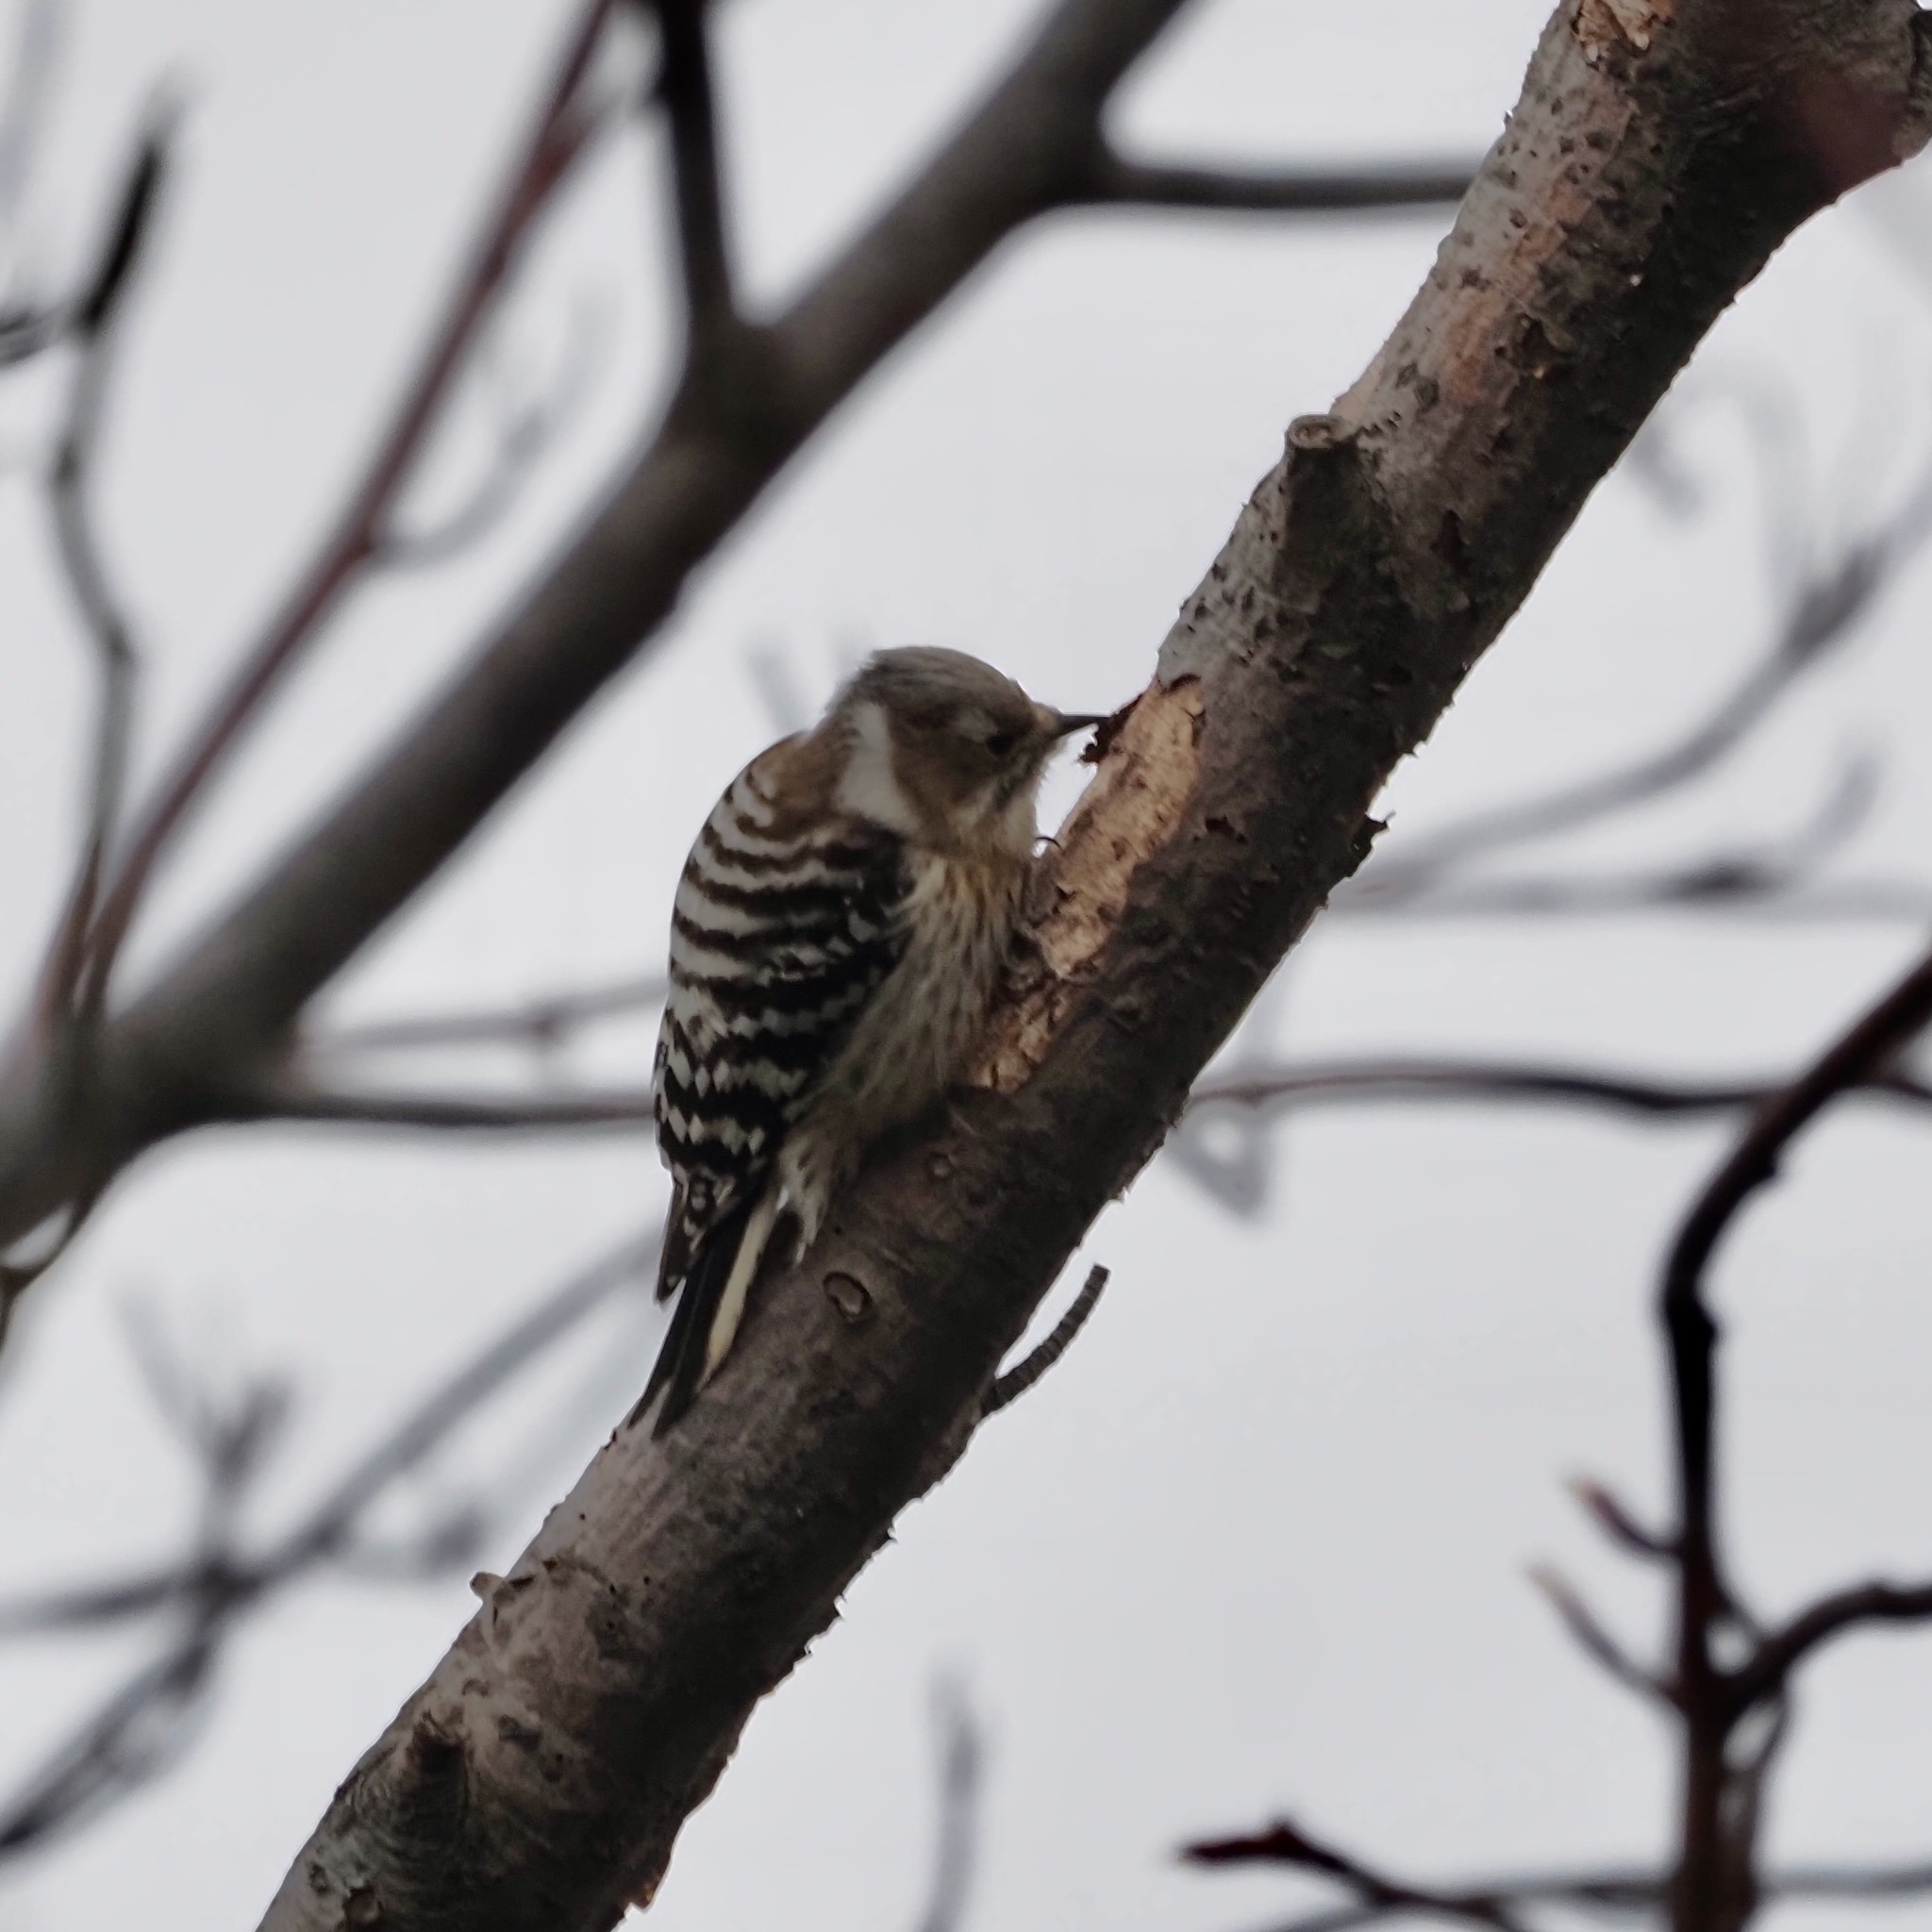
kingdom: Animalia
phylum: Chordata
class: Aves
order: Piciformes
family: Picidae
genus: Yungipicus
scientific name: Yungipicus kizuki
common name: Japanese pygmy woodpecker
